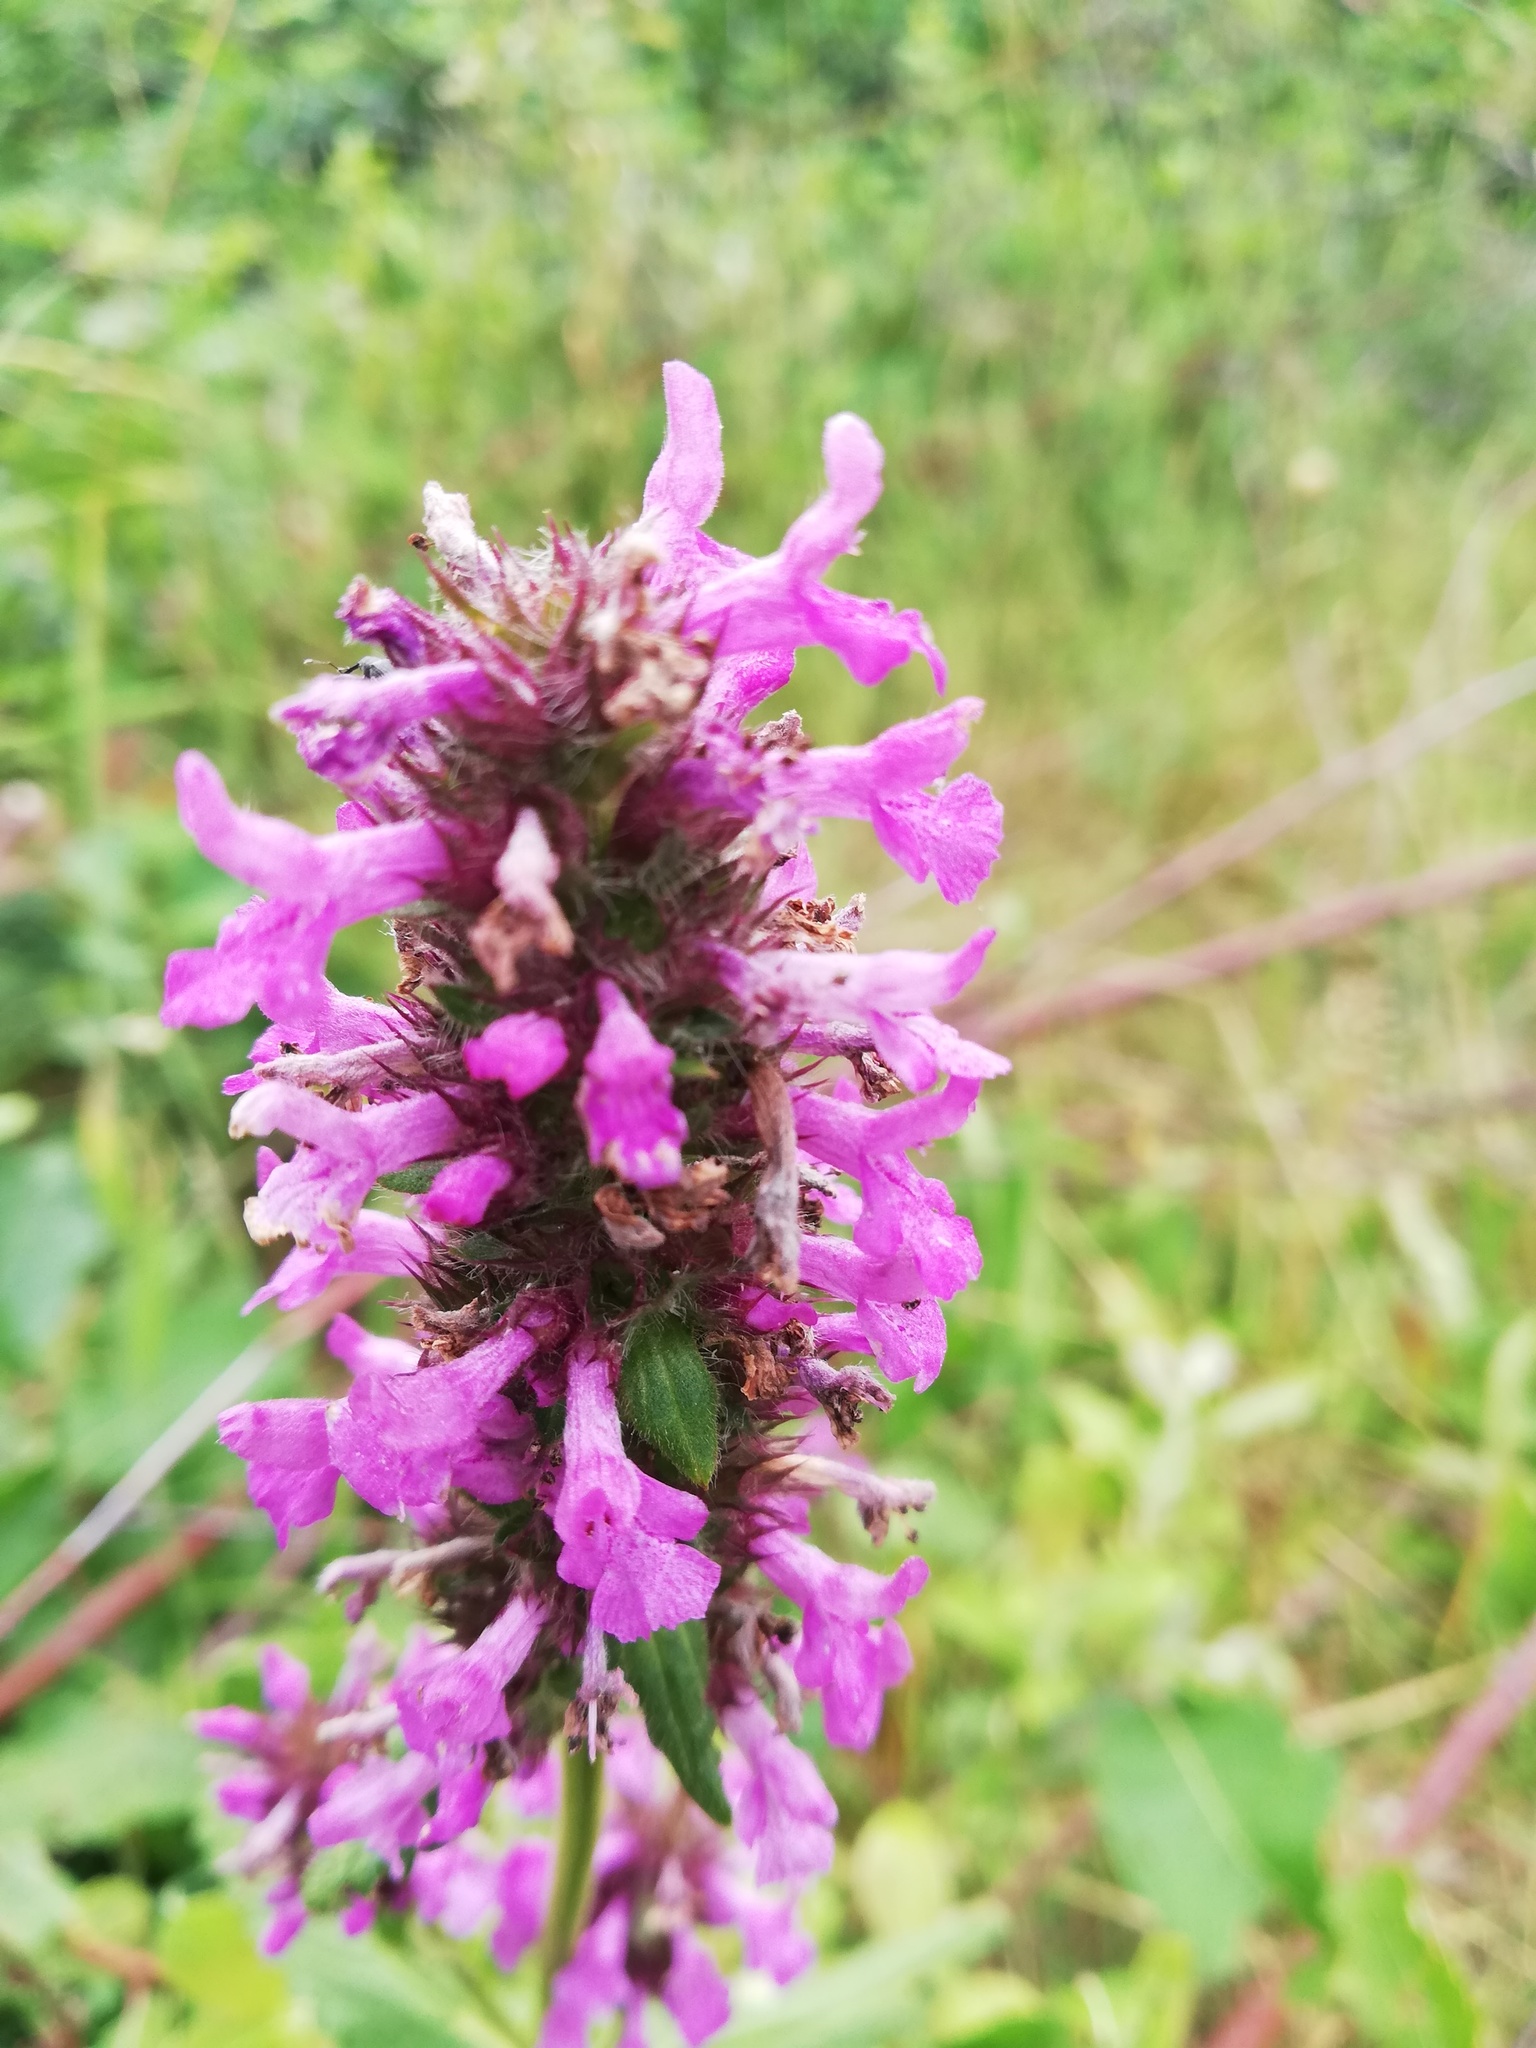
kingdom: Plantae
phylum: Tracheophyta
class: Magnoliopsida
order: Lamiales
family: Lamiaceae
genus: Betonica
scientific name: Betonica officinalis
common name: Bishop's-wort
